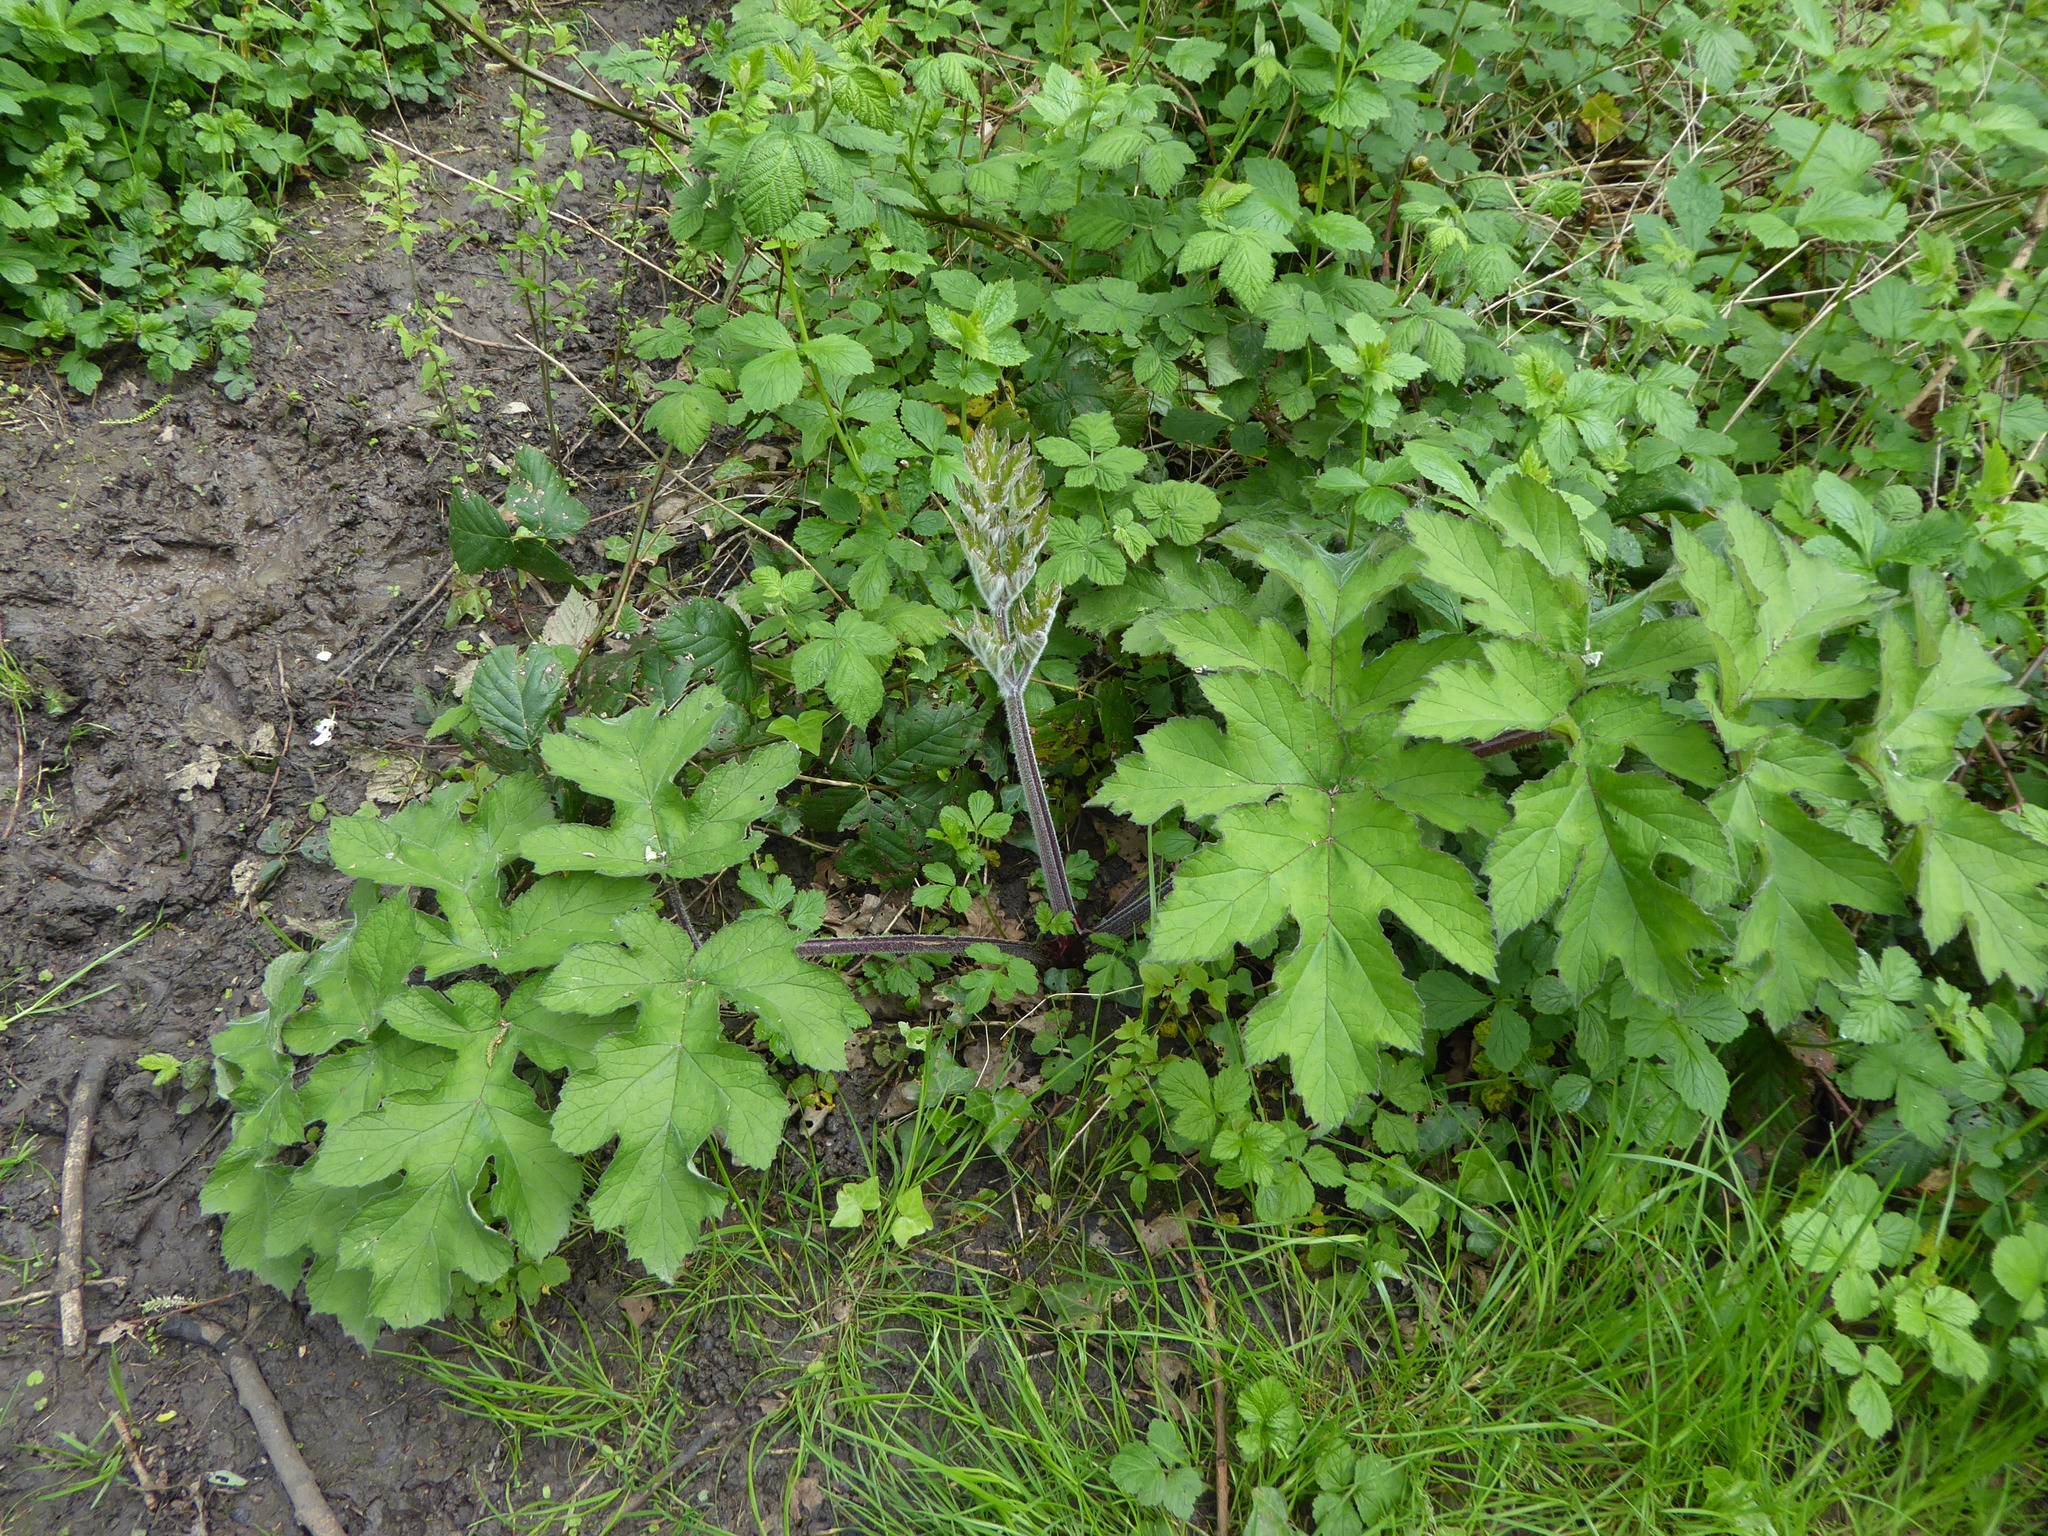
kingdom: Plantae
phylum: Tracheophyta
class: Magnoliopsida
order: Apiales
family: Apiaceae
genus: Heracleum
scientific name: Heracleum sphondylium
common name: Hogweed
